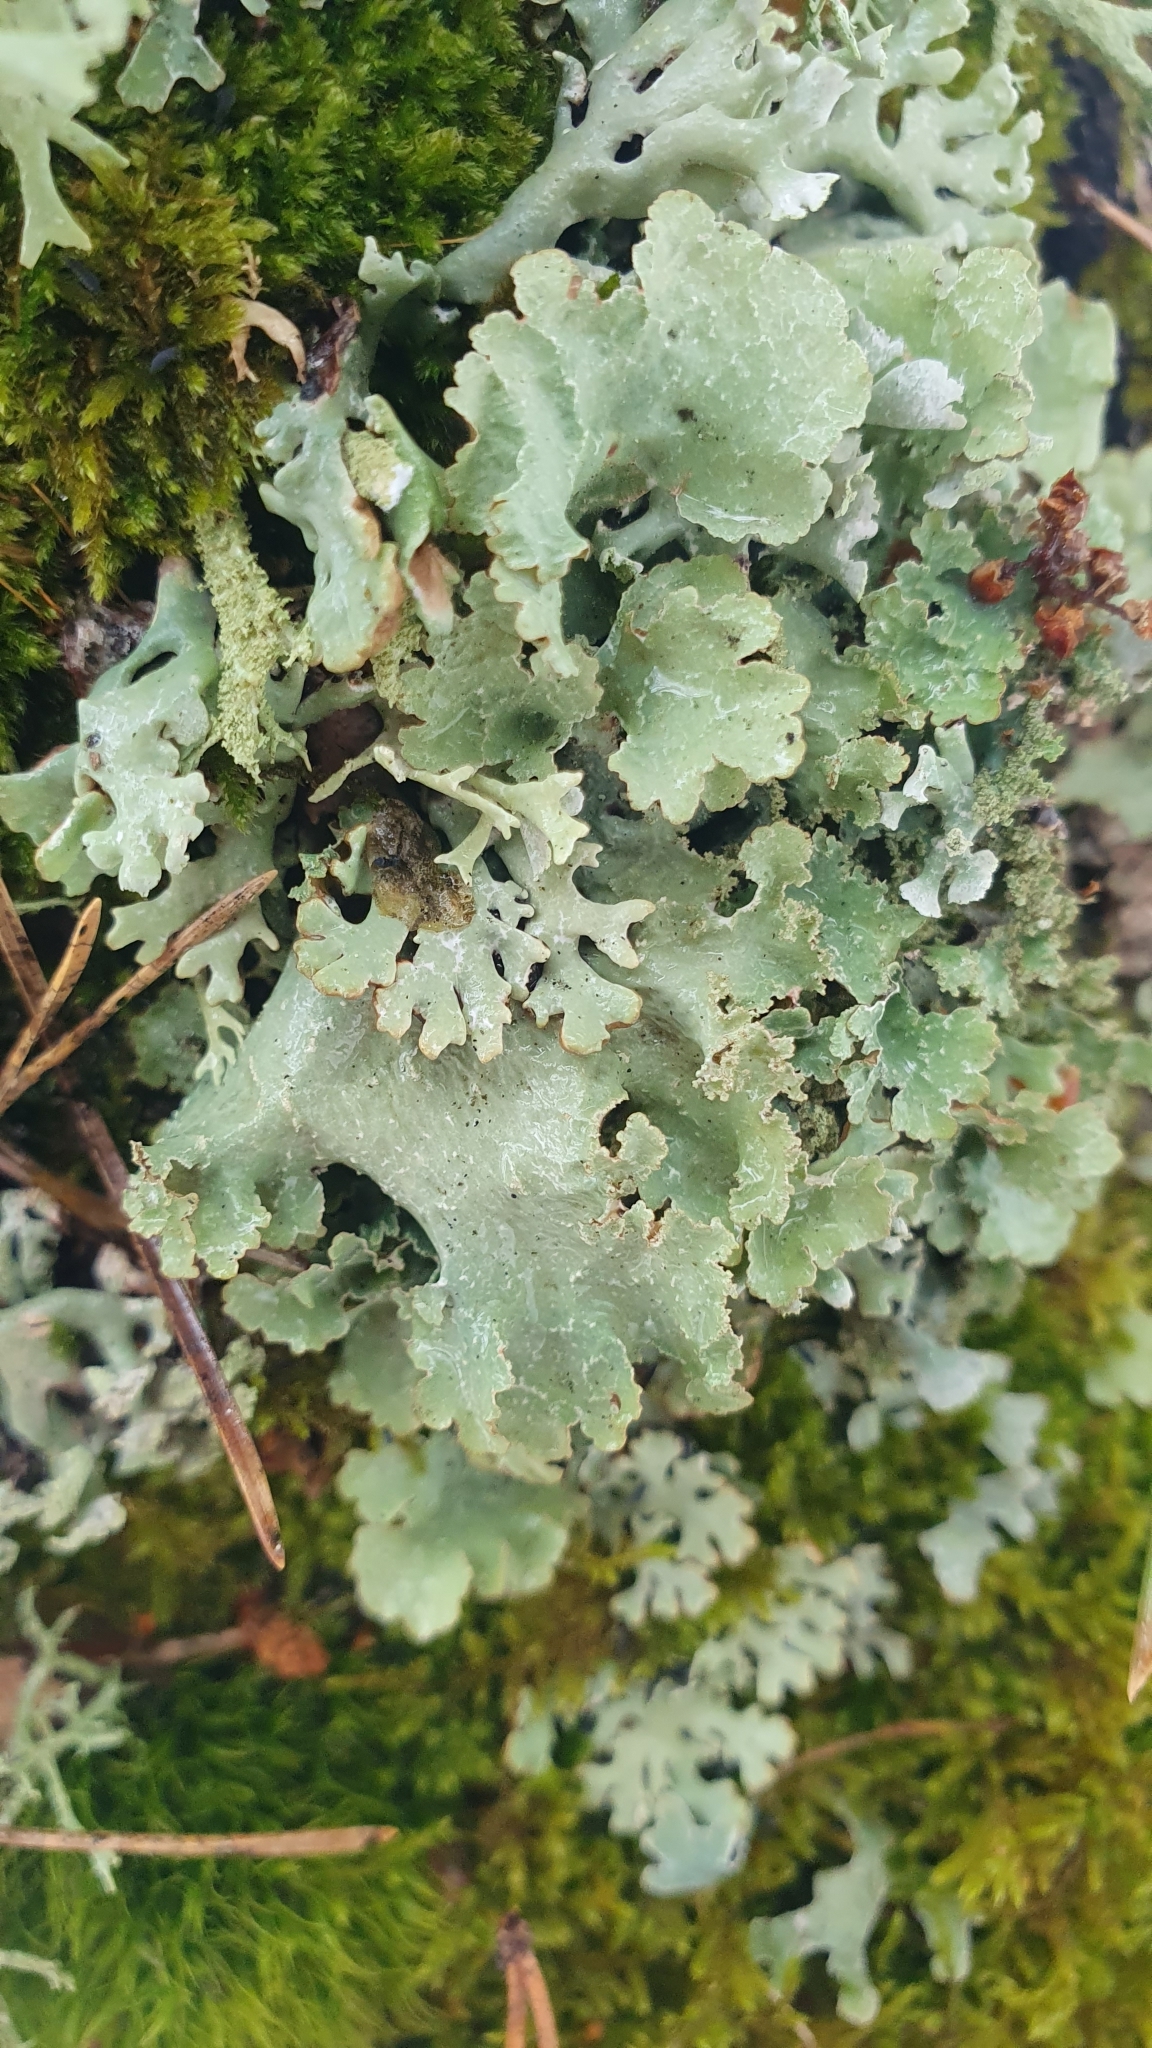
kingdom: Fungi
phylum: Ascomycota
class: Lecanoromycetes
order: Lecanorales
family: Parmeliaceae
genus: Platismatia
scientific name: Platismatia glauca
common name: Varied rag lichen
